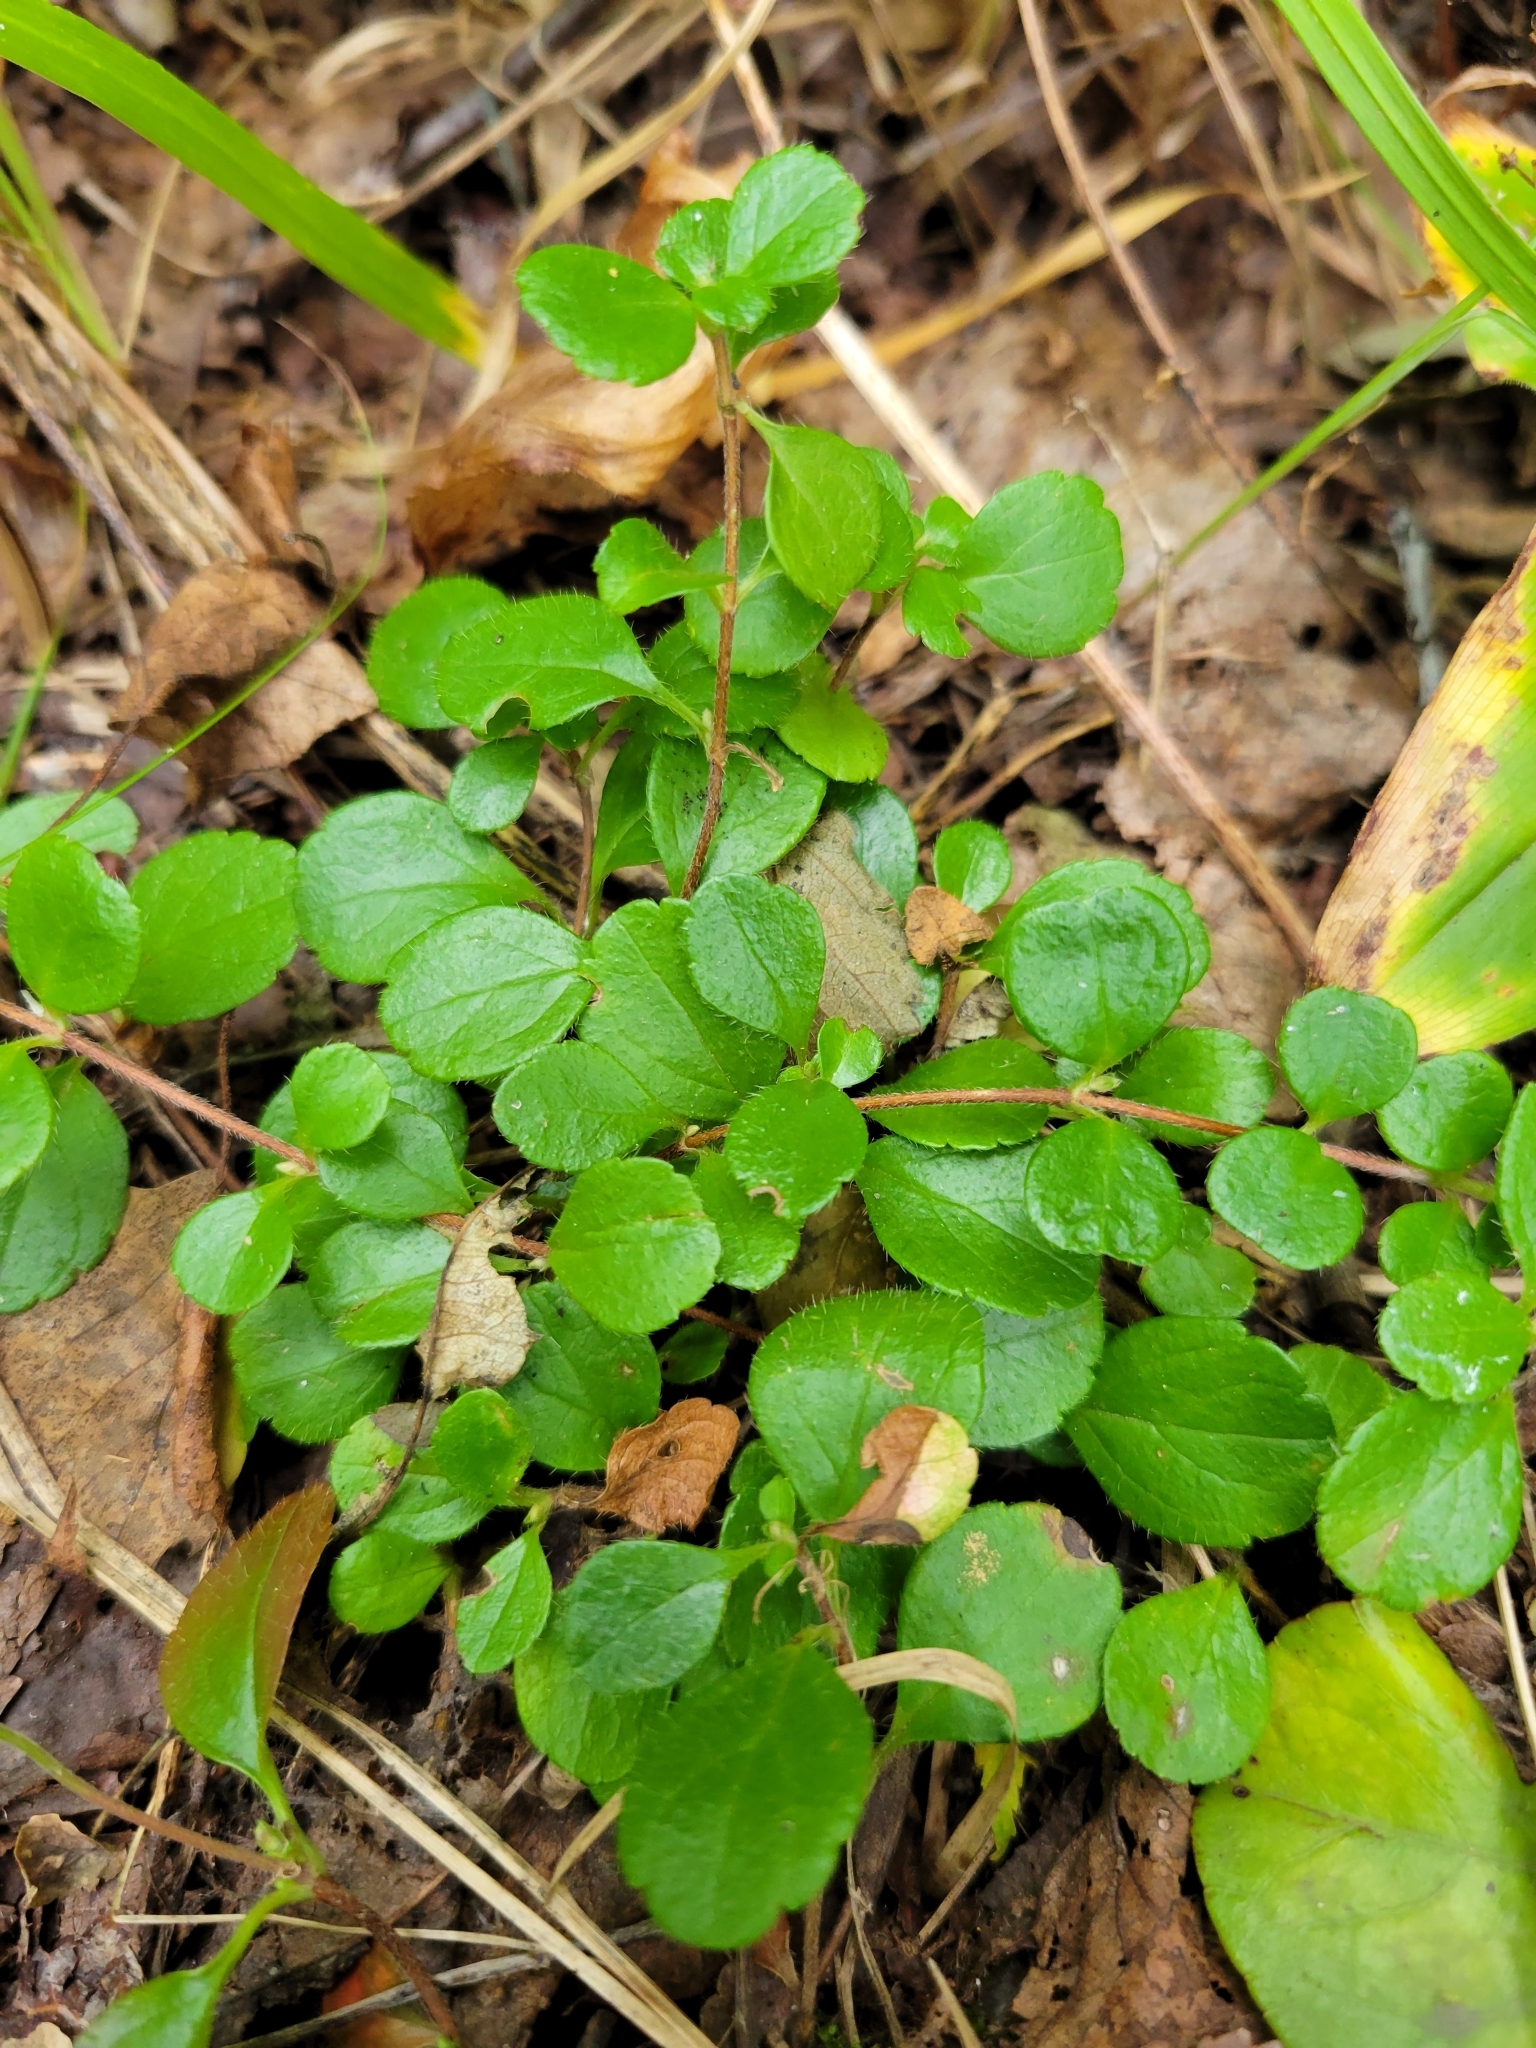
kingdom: Plantae
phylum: Tracheophyta
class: Magnoliopsida
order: Dipsacales
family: Caprifoliaceae
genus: Linnaea
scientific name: Linnaea borealis
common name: Twinflower
